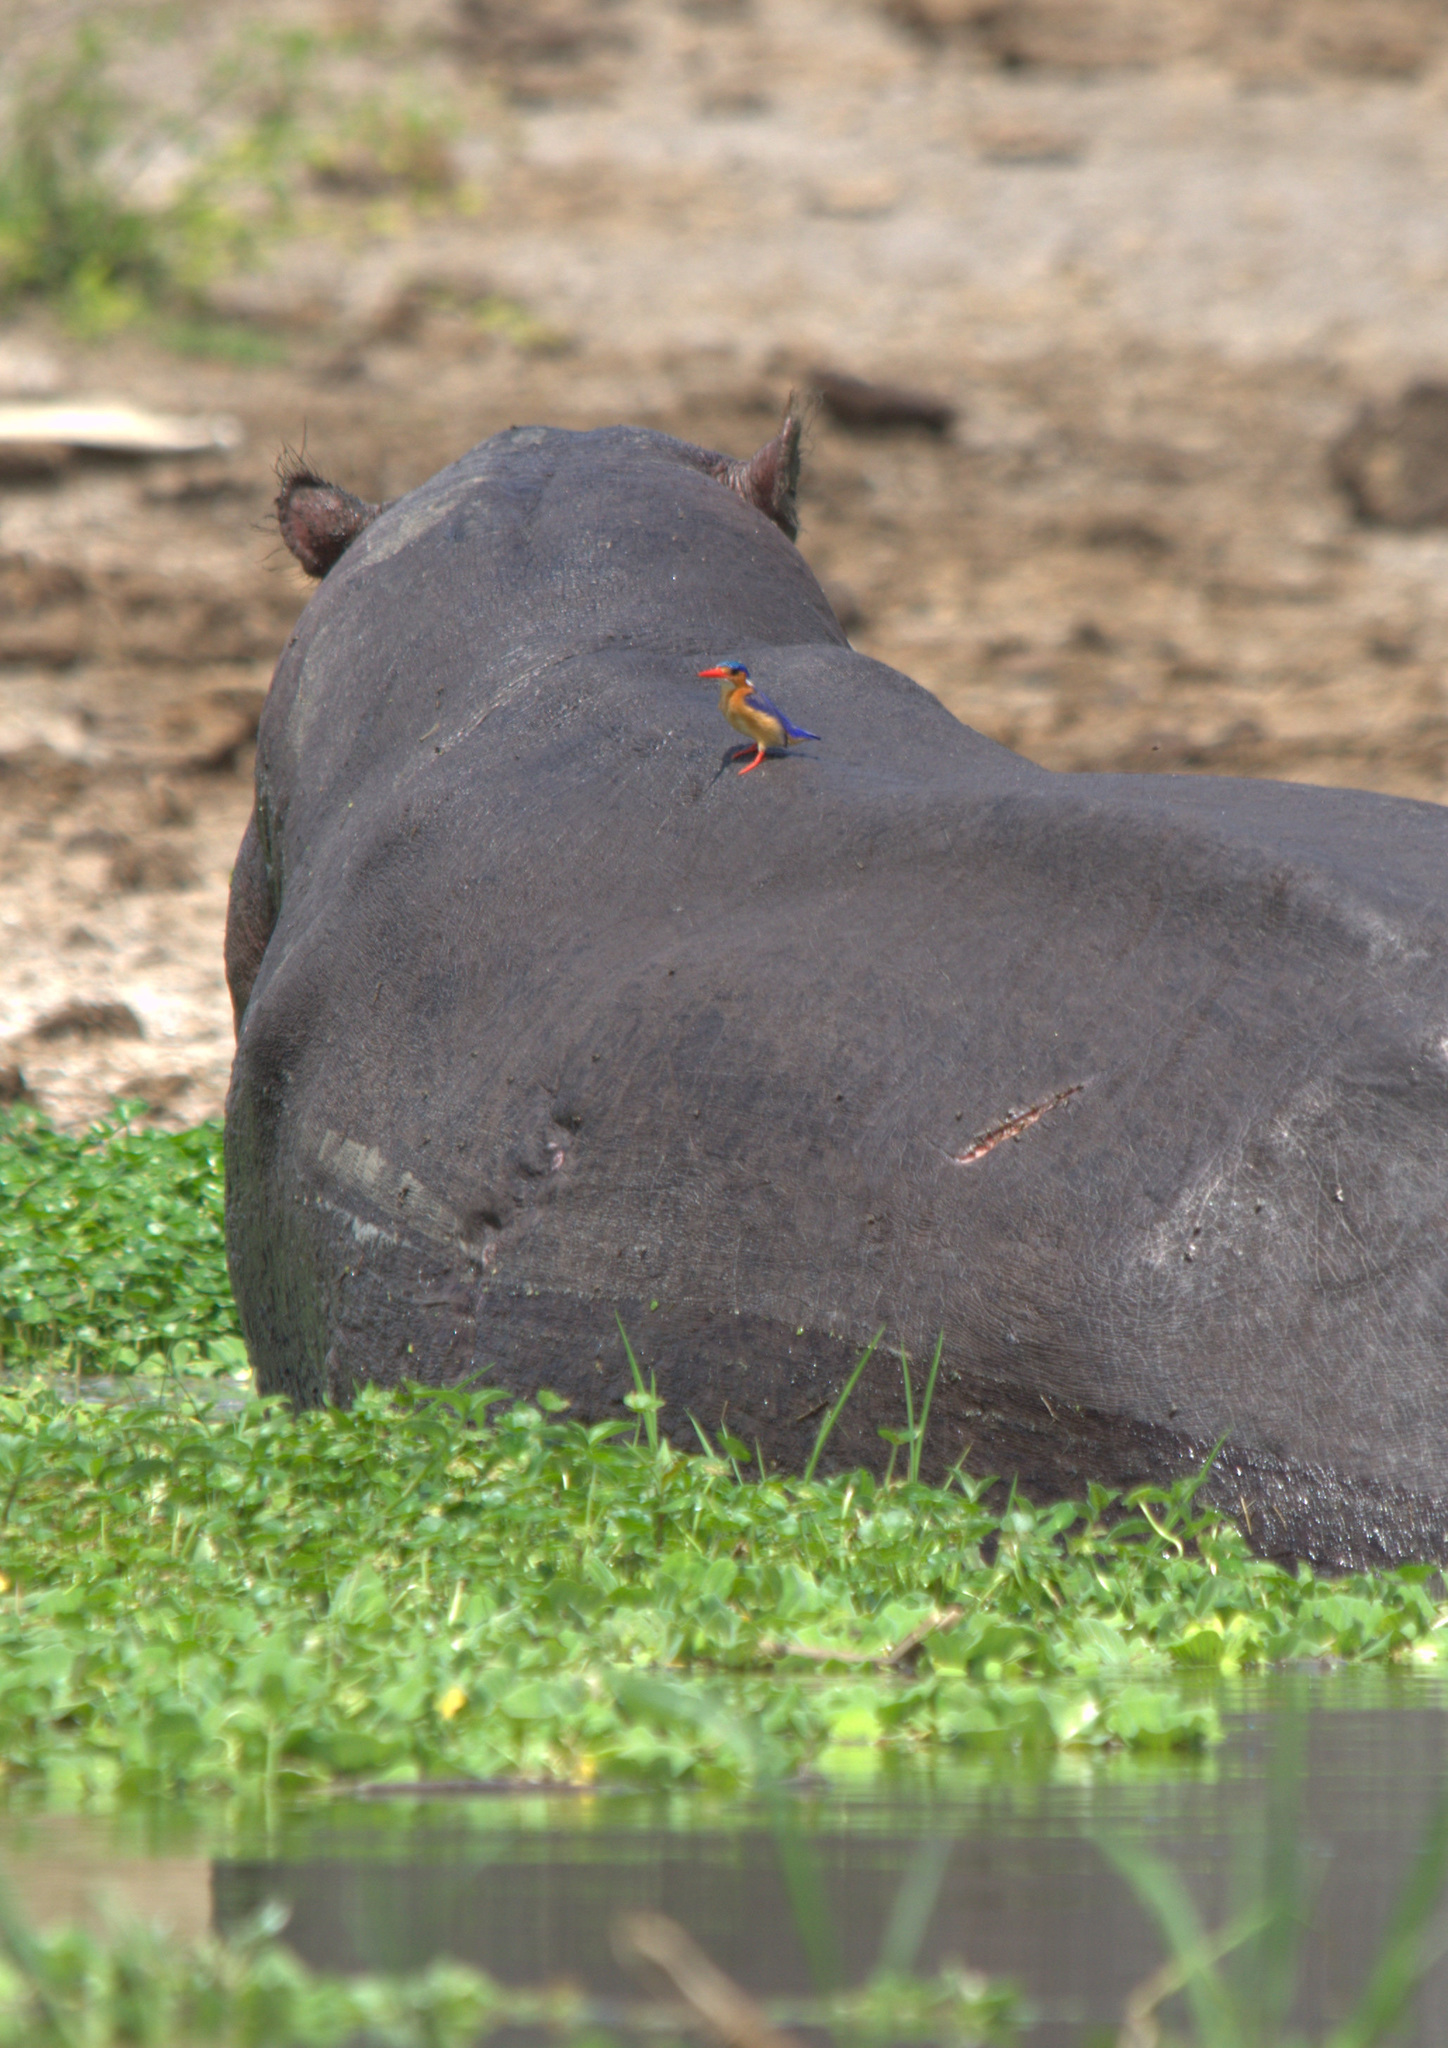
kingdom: Animalia
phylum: Chordata
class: Mammalia
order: Artiodactyla
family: Hippopotamidae
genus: Hippopotamus
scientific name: Hippopotamus amphibius
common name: Common hippopotamus
